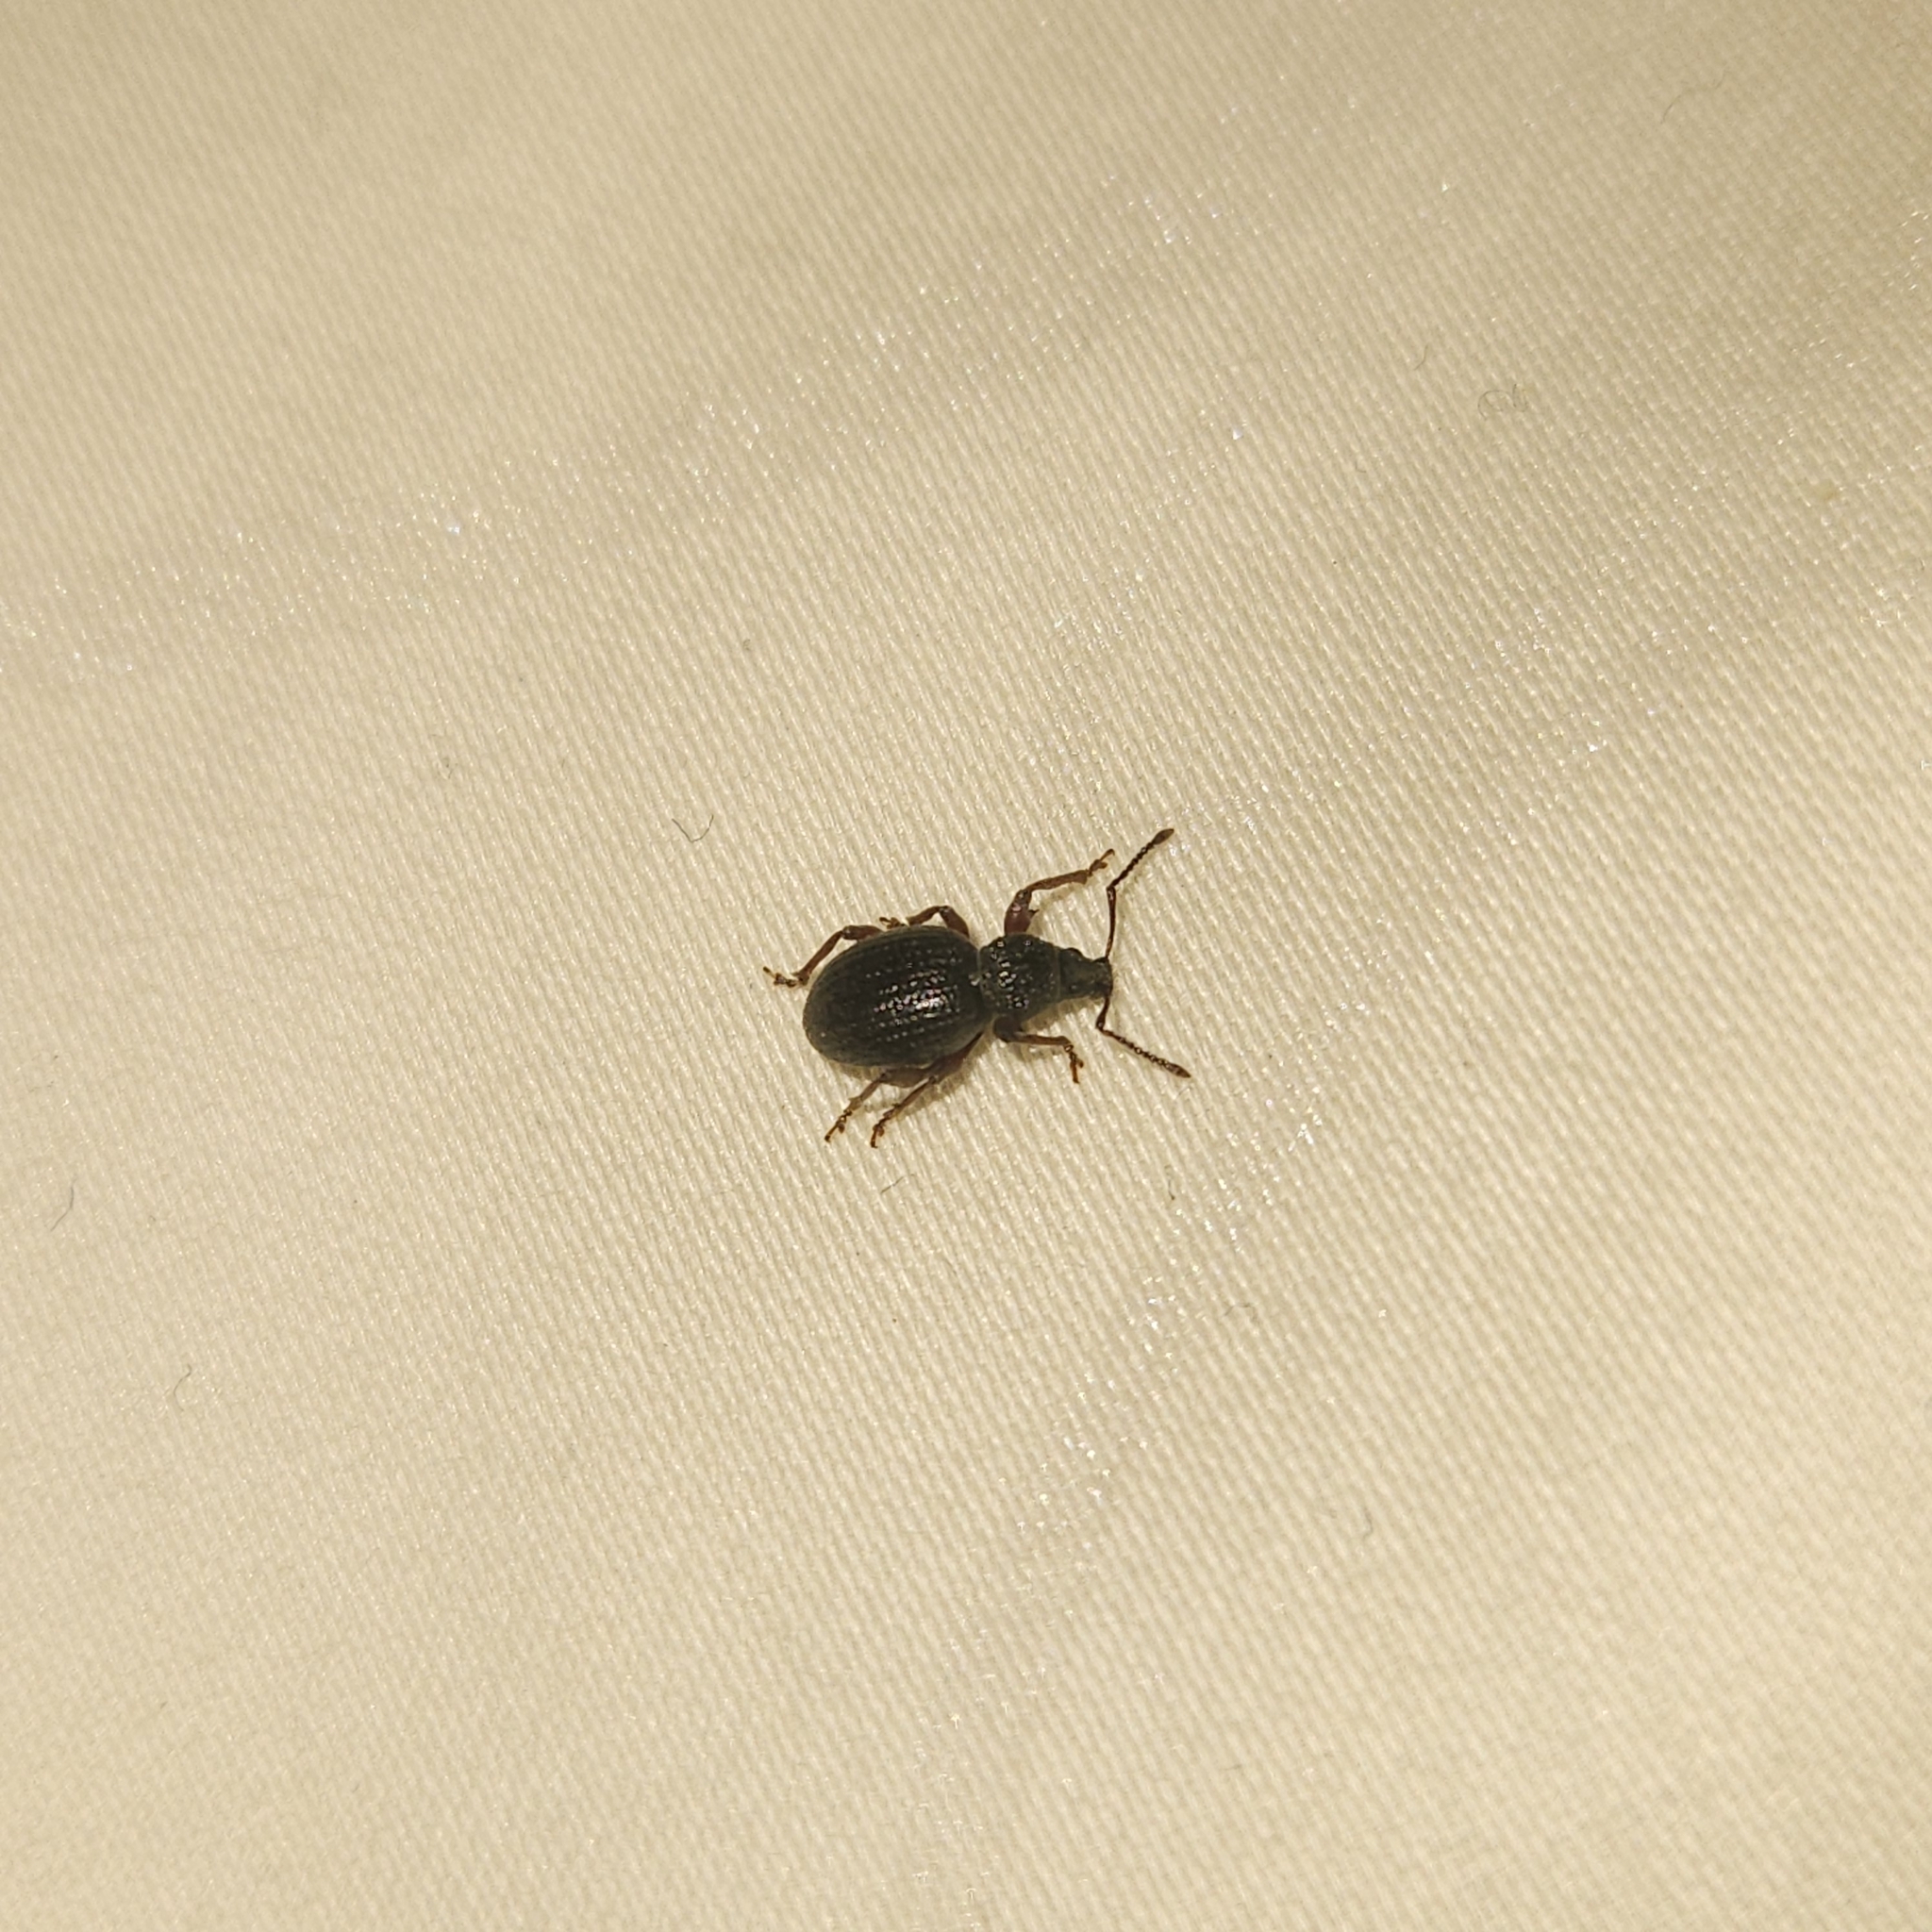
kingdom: Animalia
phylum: Arthropoda
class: Insecta
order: Coleoptera
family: Curculionidae
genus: Otiorhynchus
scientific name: Otiorhynchus ovatus
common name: Strawberry root weevil
